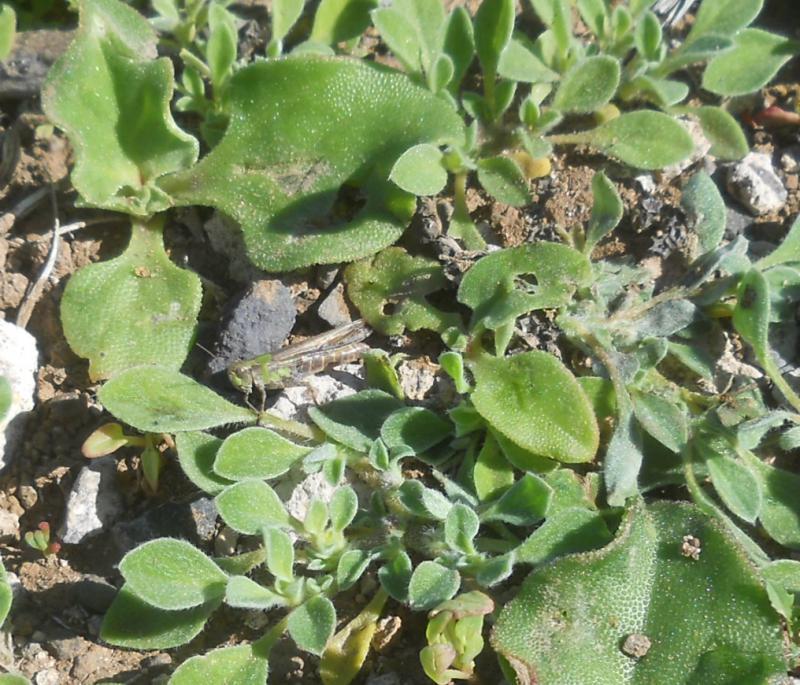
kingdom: Plantae
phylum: Tracheophyta
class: Magnoliopsida
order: Caryophyllales
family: Aizoaceae
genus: Aizoon
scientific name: Aizoon canariense
